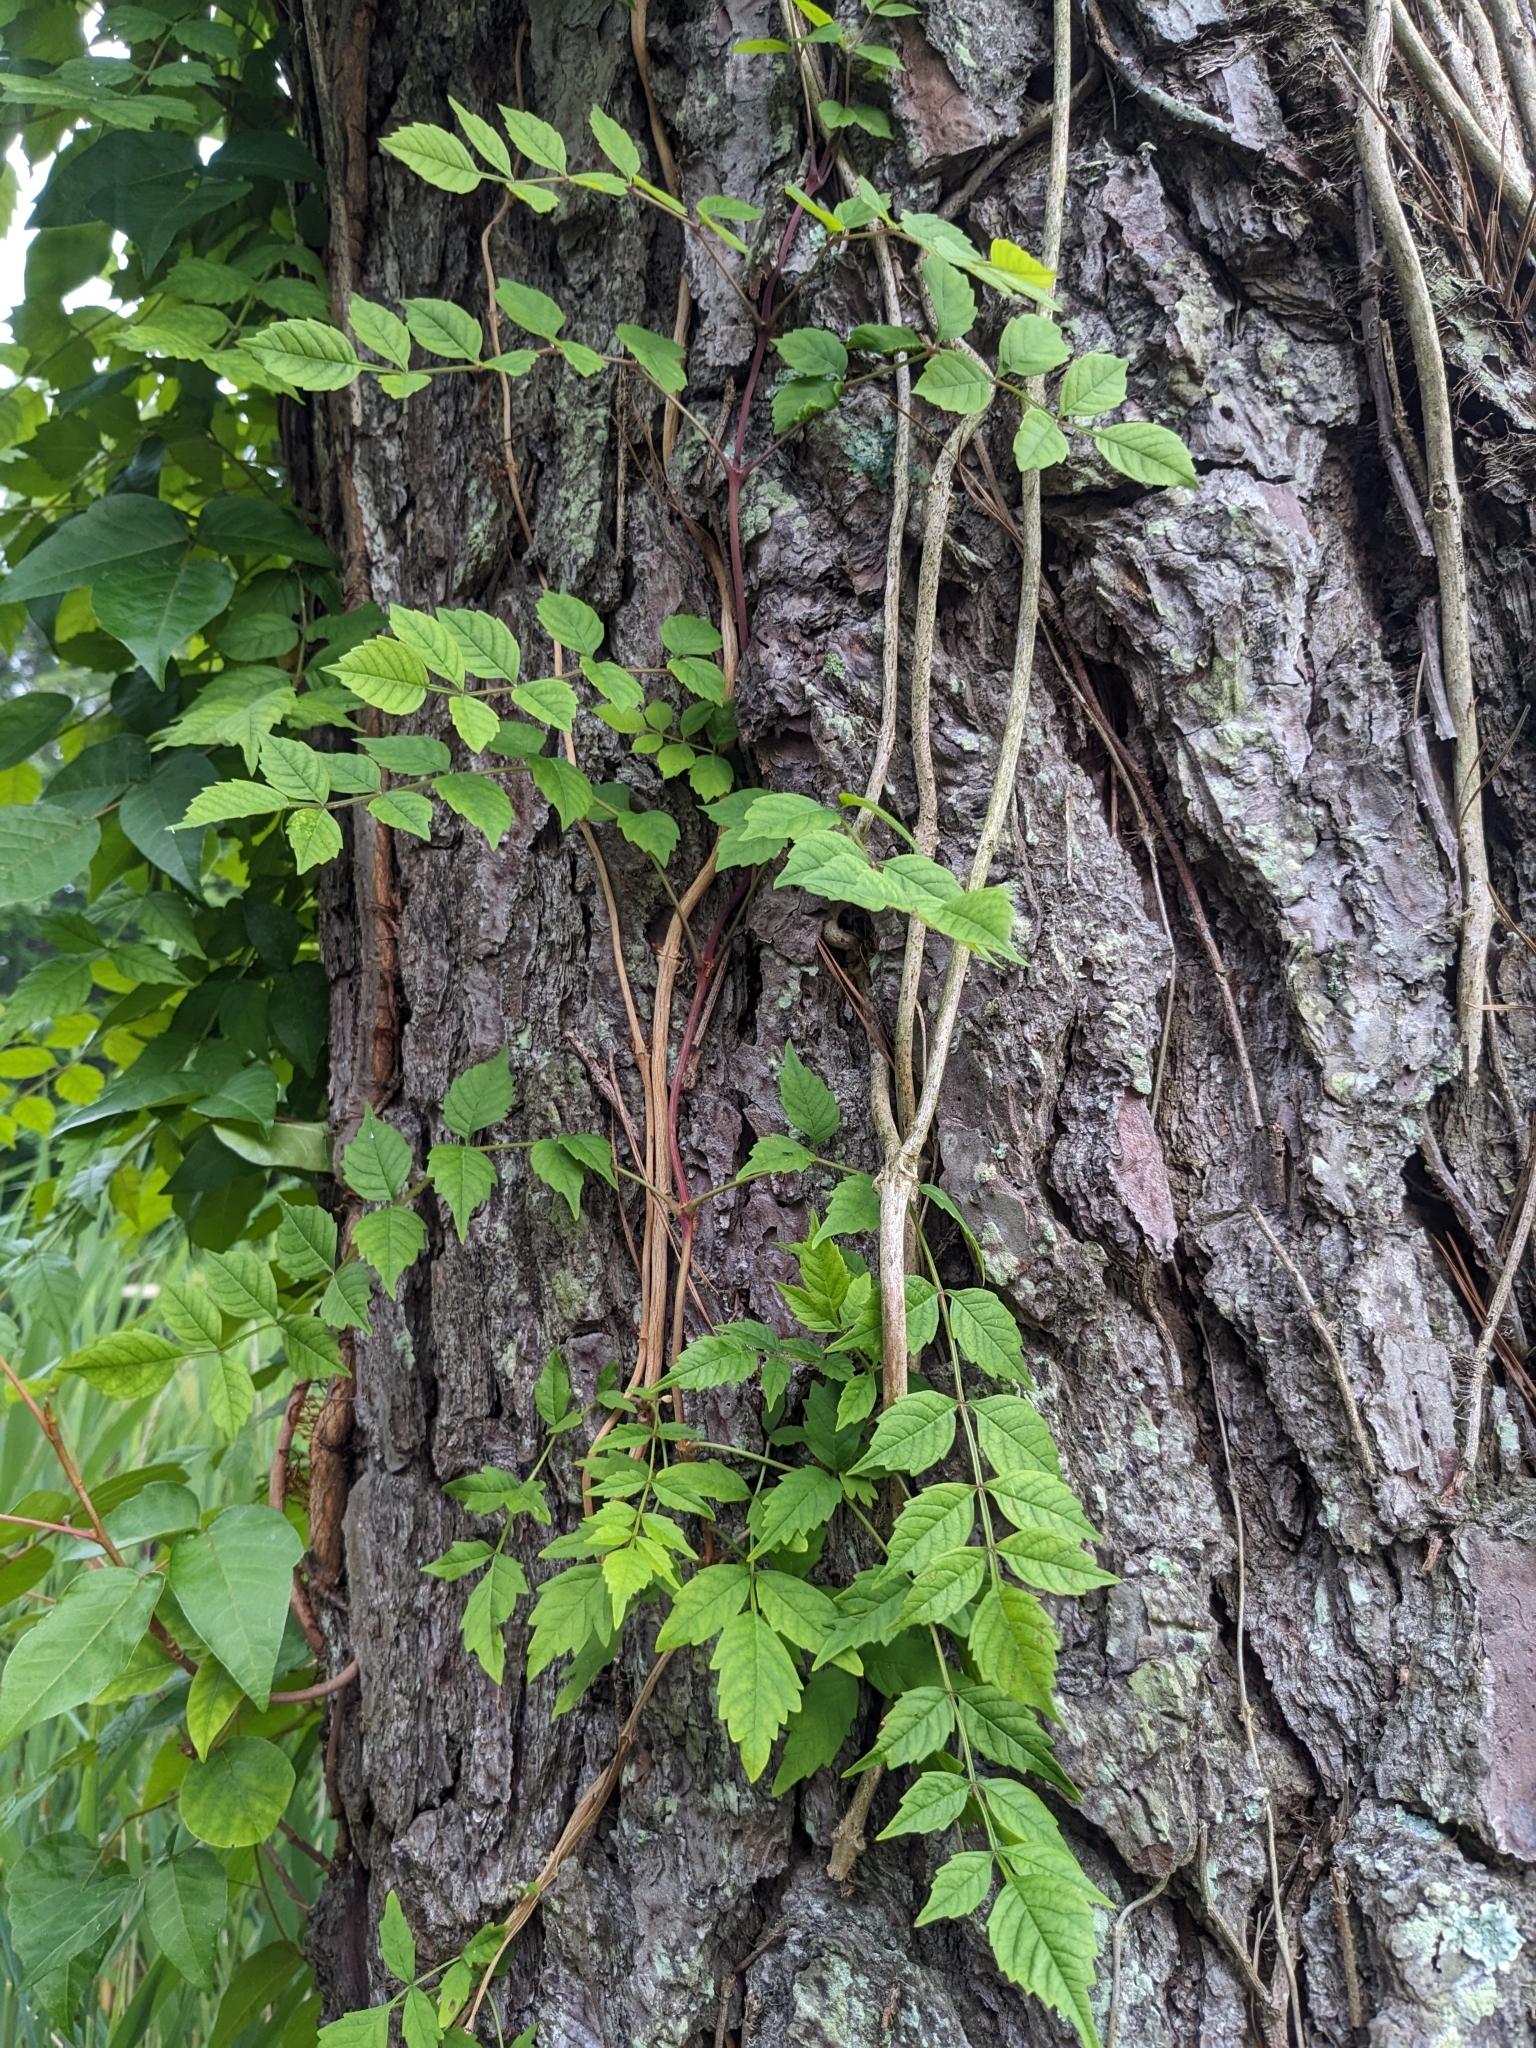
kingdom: Plantae
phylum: Tracheophyta
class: Magnoliopsida
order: Lamiales
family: Bignoniaceae
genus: Campsis
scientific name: Campsis radicans
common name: Trumpet-creeper
